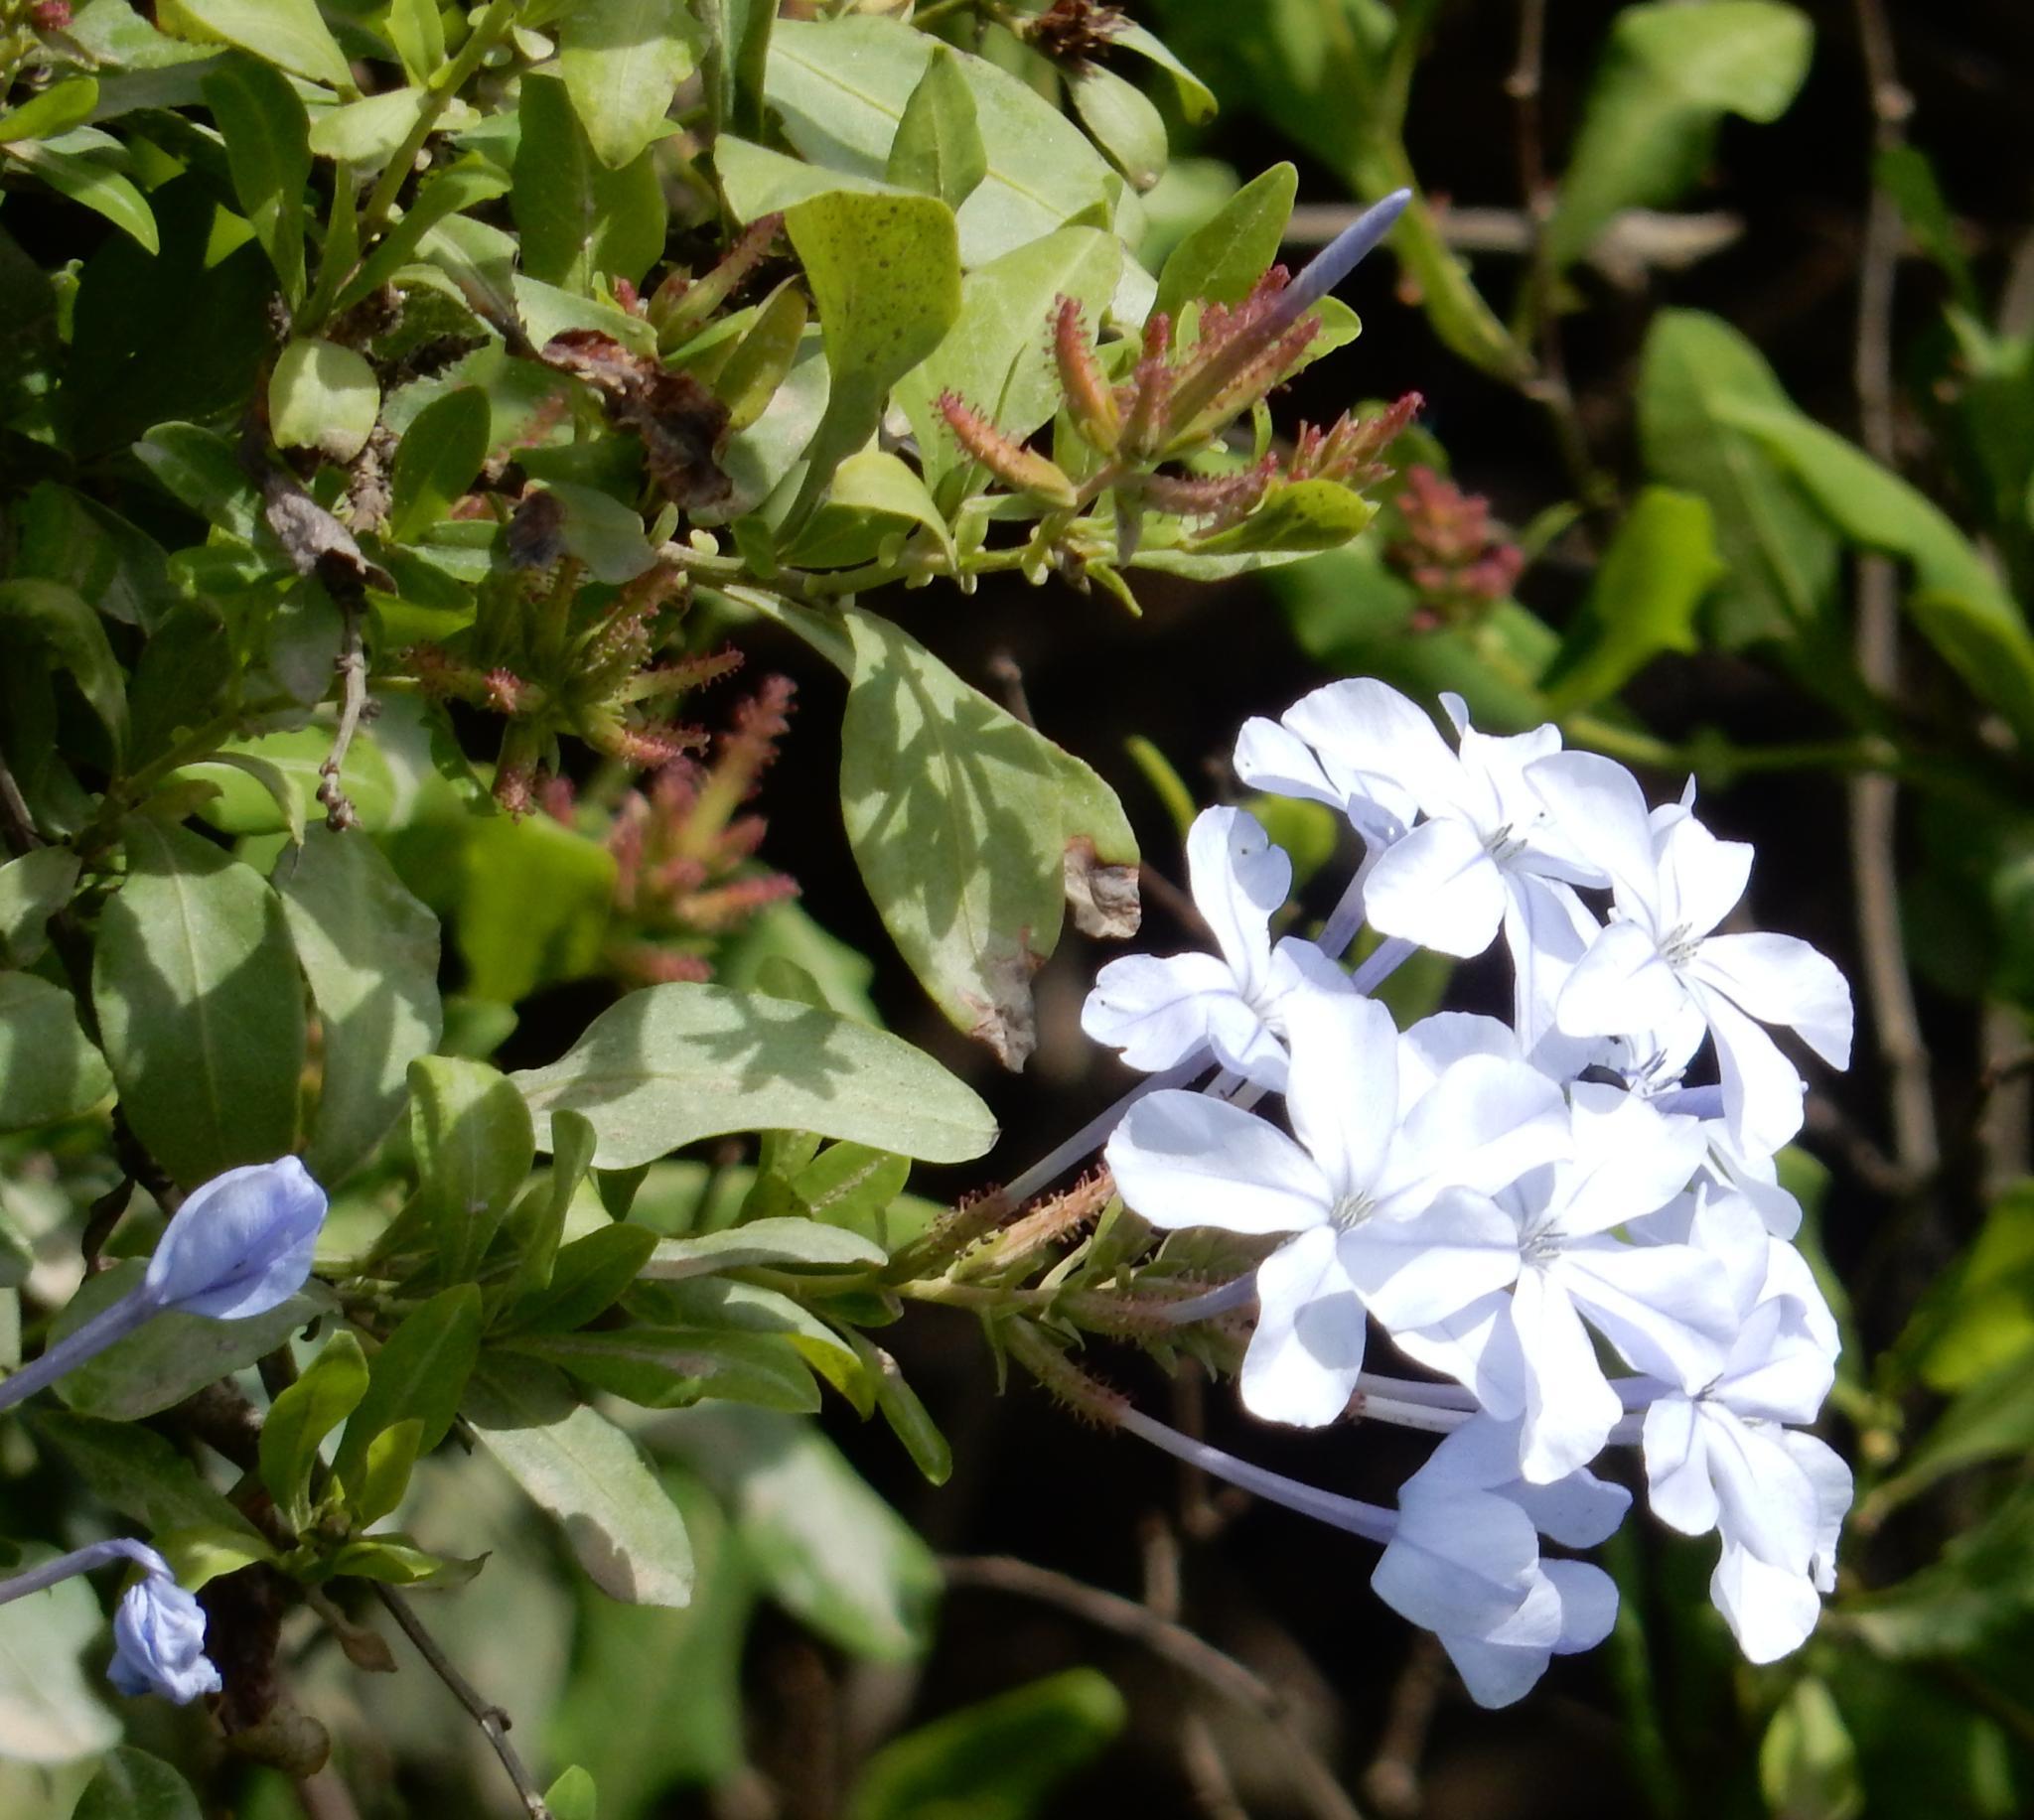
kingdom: Plantae
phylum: Tracheophyta
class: Magnoliopsida
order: Caryophyllales
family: Plumbaginaceae
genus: Plumbago
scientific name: Plumbago auriculata
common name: Cape leadwort
